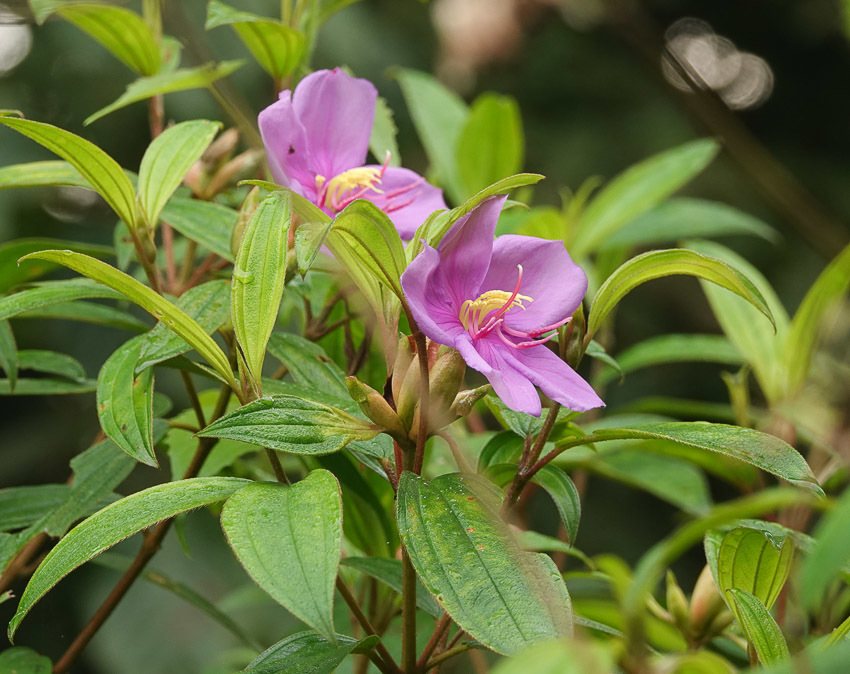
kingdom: Plantae
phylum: Tracheophyta
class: Magnoliopsida
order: Myrtales
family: Melastomataceae
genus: Melastoma
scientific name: Melastoma malabathricum
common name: Indian-rhododendron
